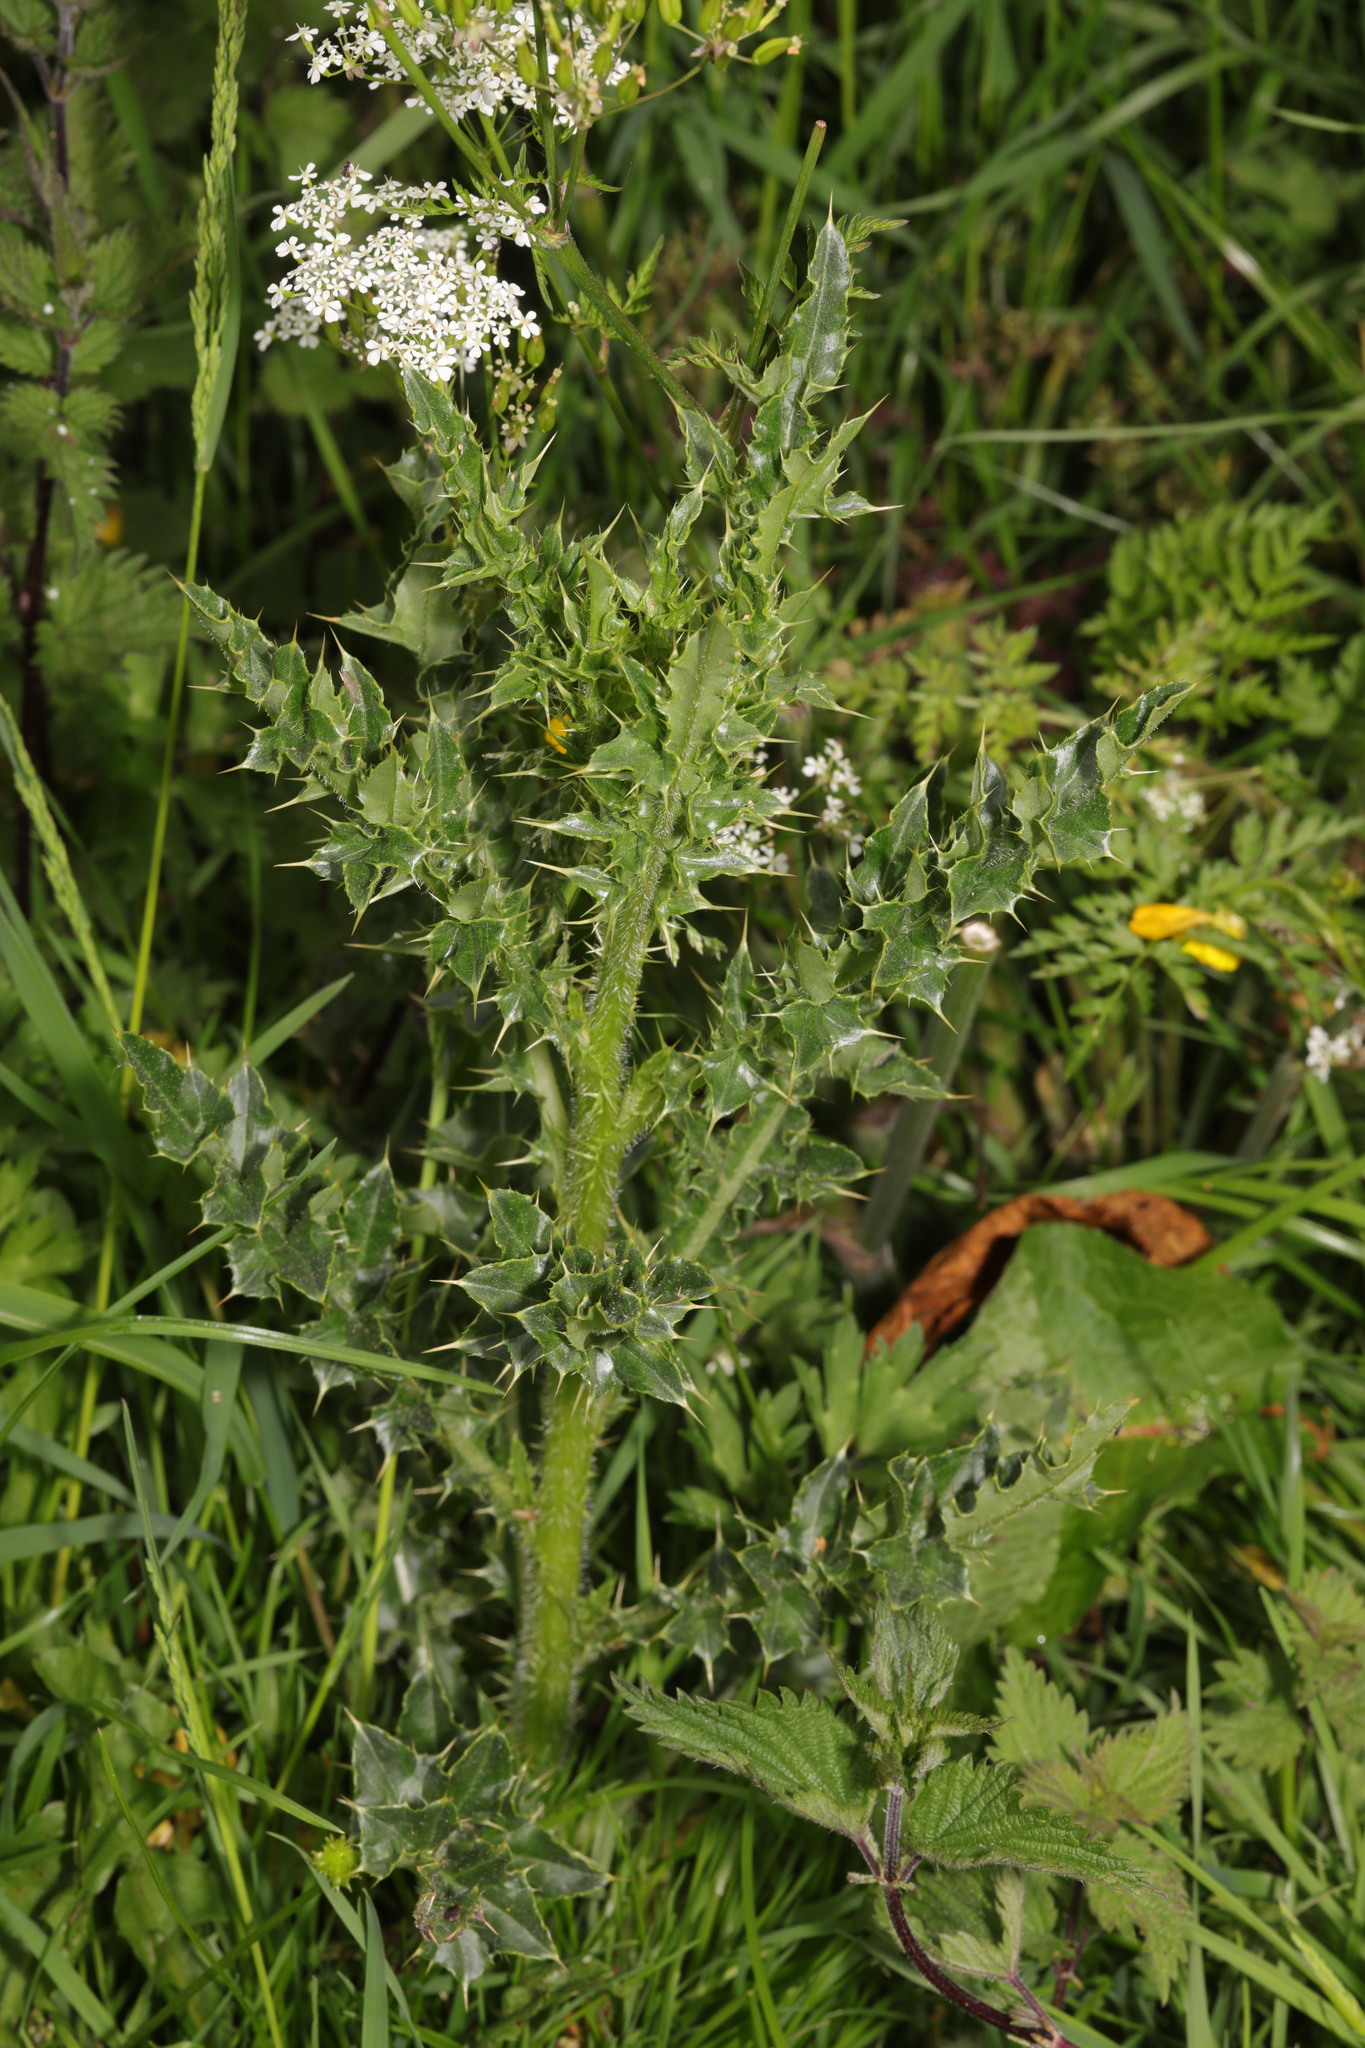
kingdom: Plantae
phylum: Tracheophyta
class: Magnoliopsida
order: Asterales
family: Asteraceae
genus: Cirsium
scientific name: Cirsium arvense
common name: Creeping thistle
